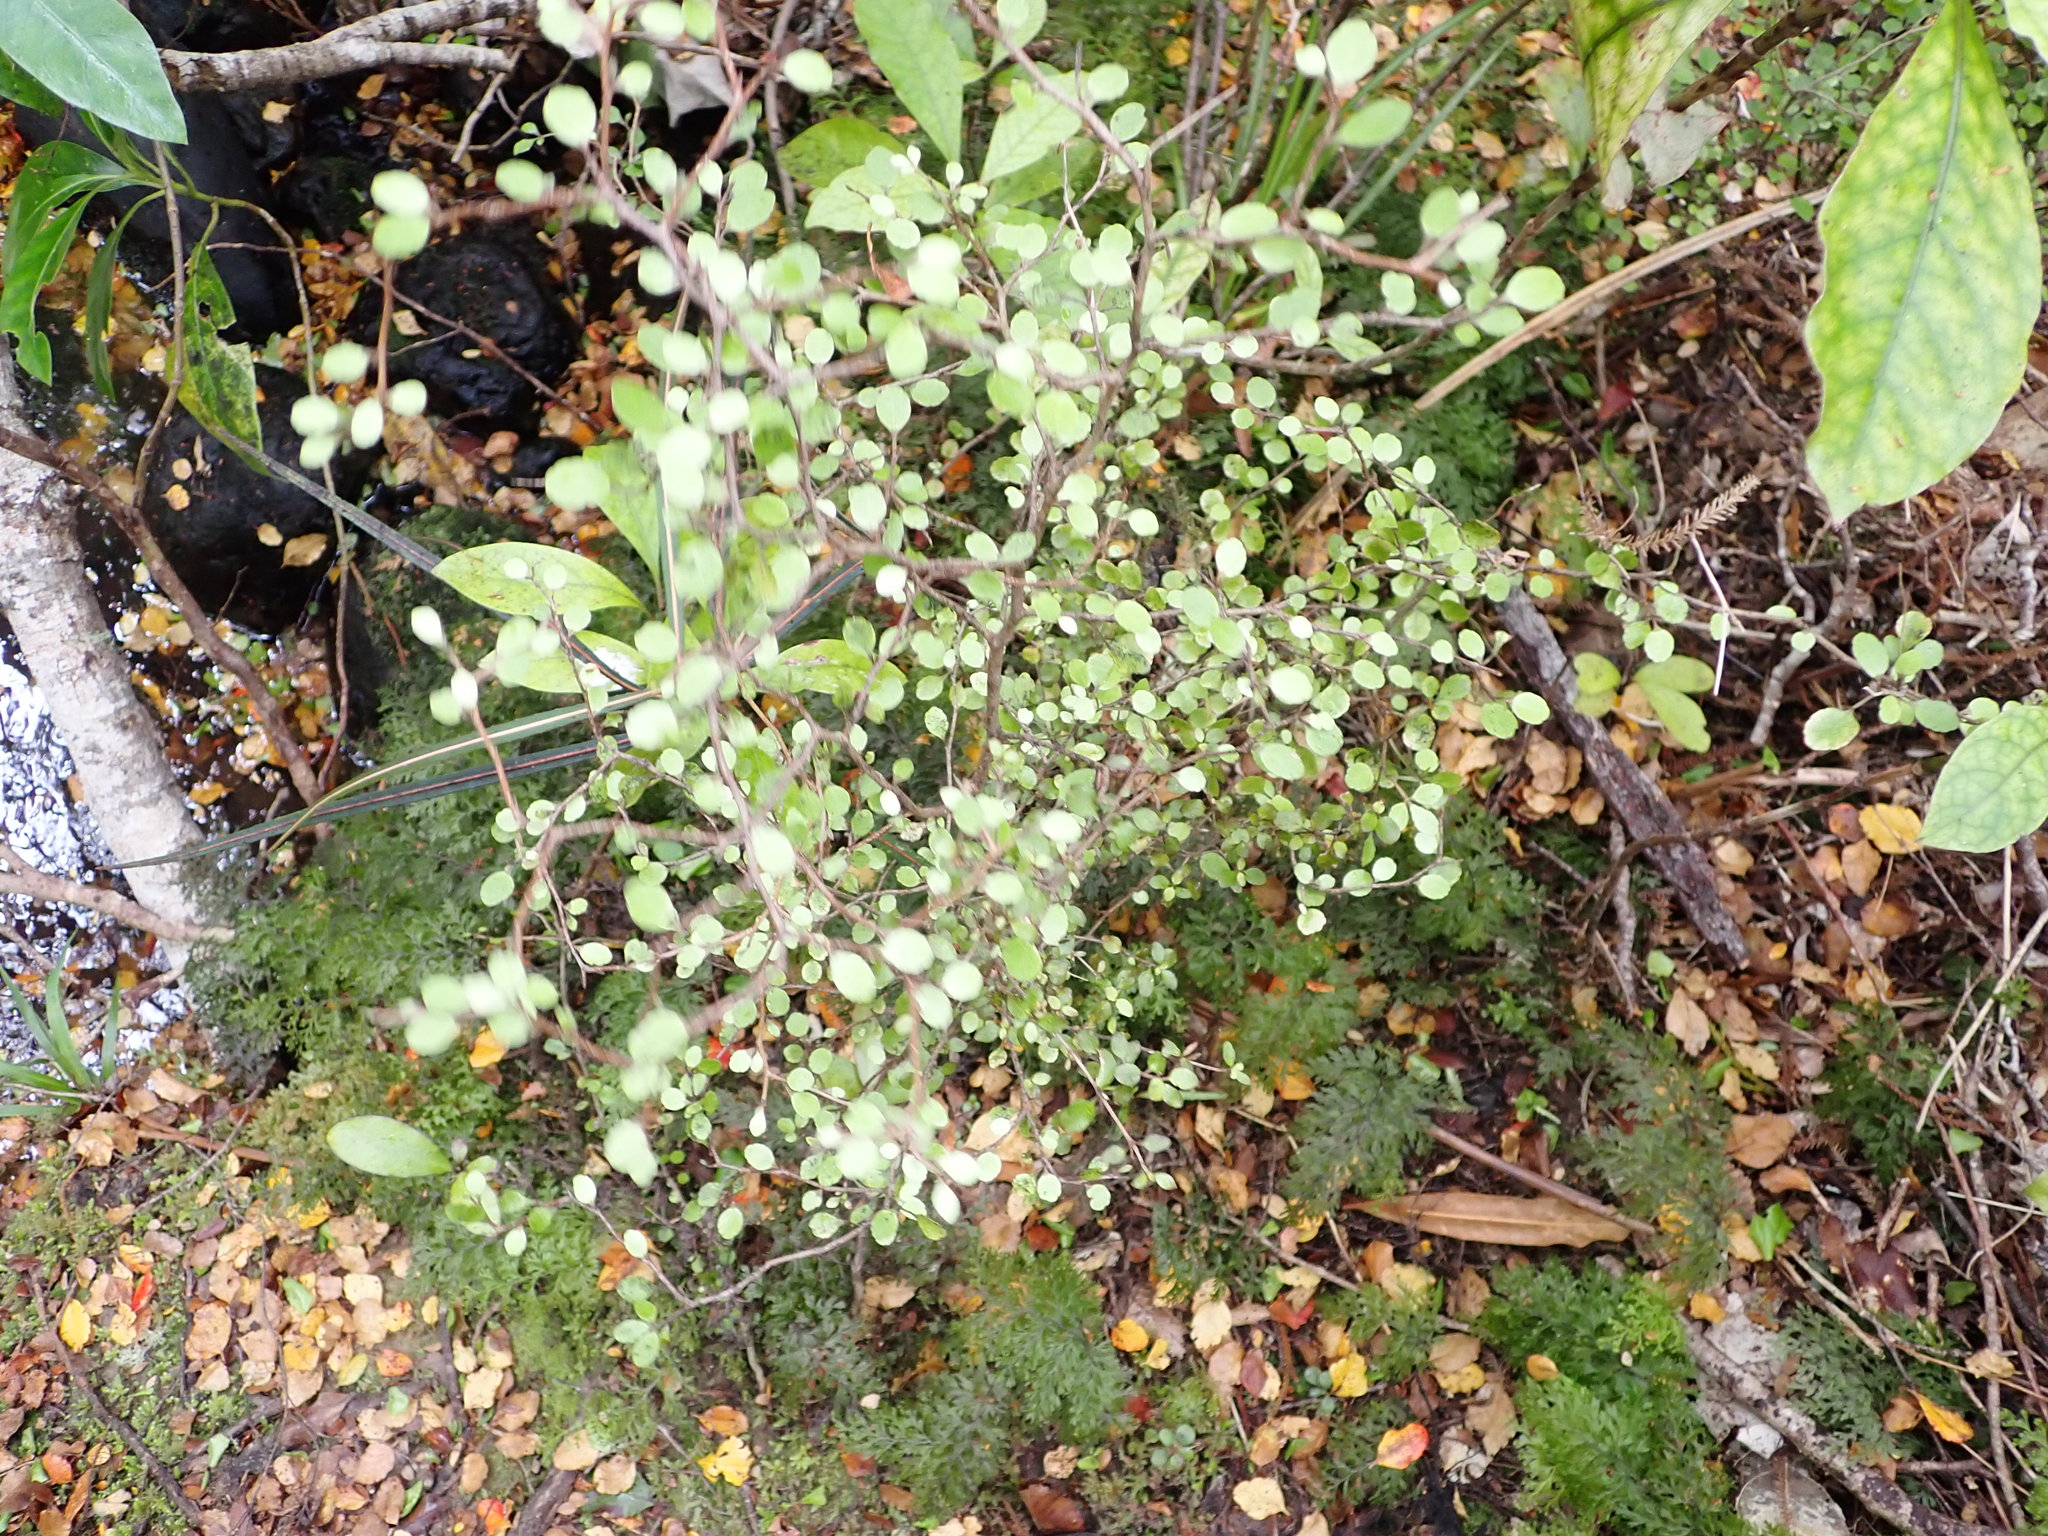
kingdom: Plantae
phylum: Tracheophyta
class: Magnoliopsida
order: Apiales
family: Araliaceae
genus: Raukaua
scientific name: Raukaua anomalus
